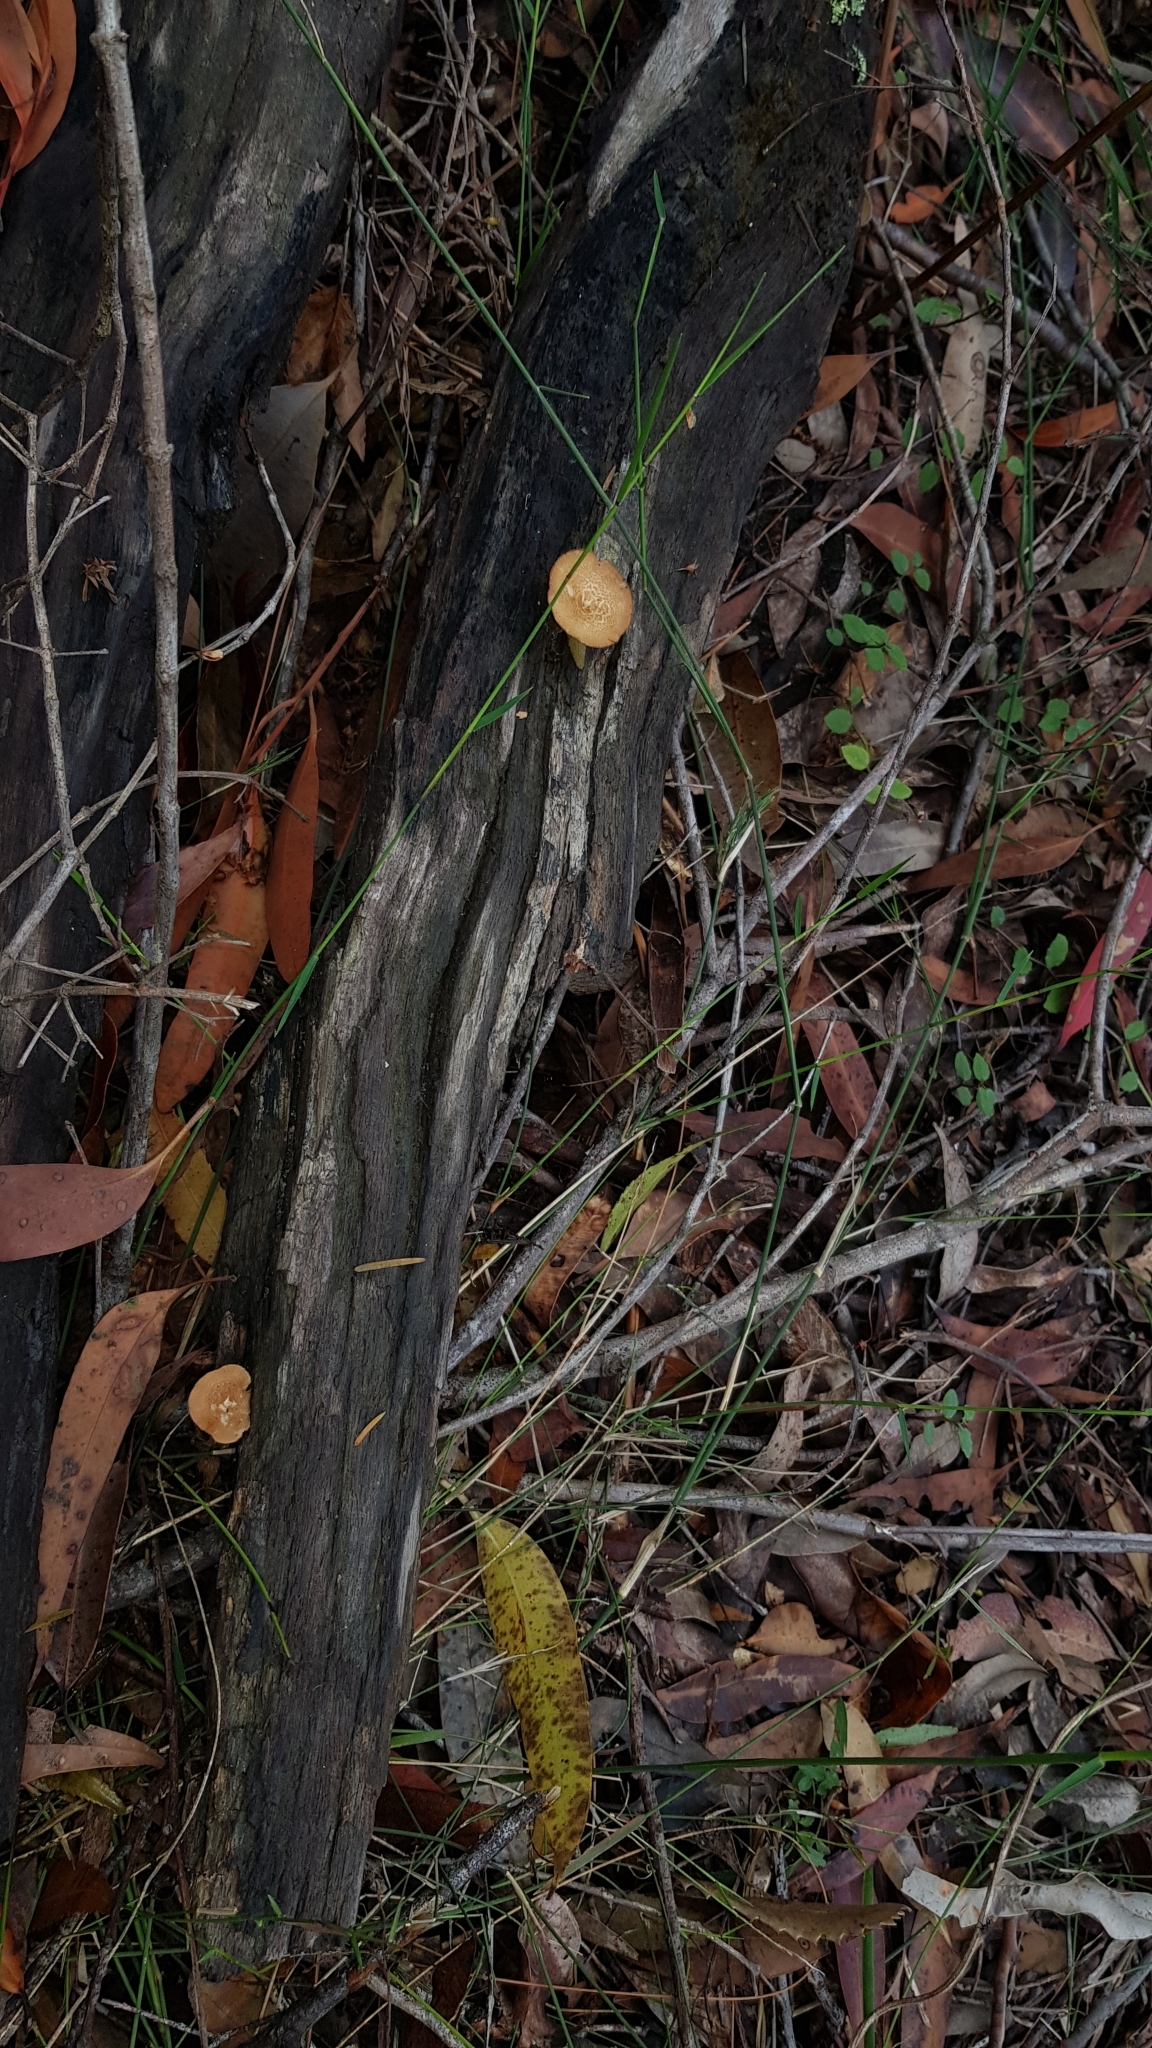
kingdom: Fungi
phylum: Basidiomycota
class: Agaricomycetes
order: Polyporales
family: Polyporaceae
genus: Lentinus
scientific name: Lentinus arcularius
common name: Spring polypore
